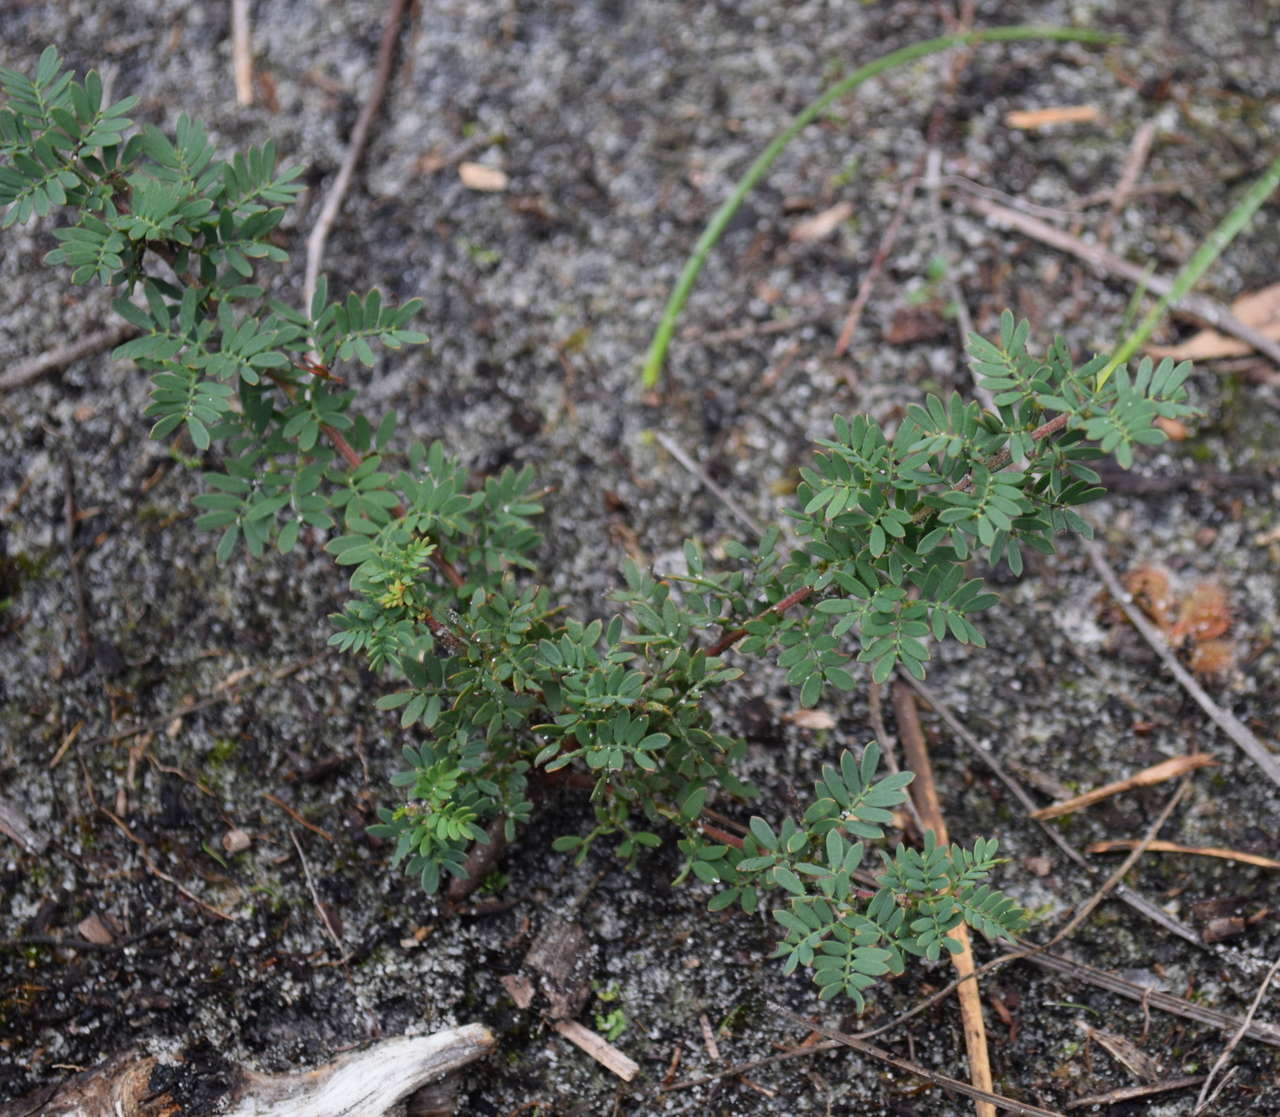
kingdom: Plantae
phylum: Tracheophyta
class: Magnoliopsida
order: Fabales
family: Fabaceae
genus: Acacia
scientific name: Acacia mitchellii
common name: Mitchell's wattle
